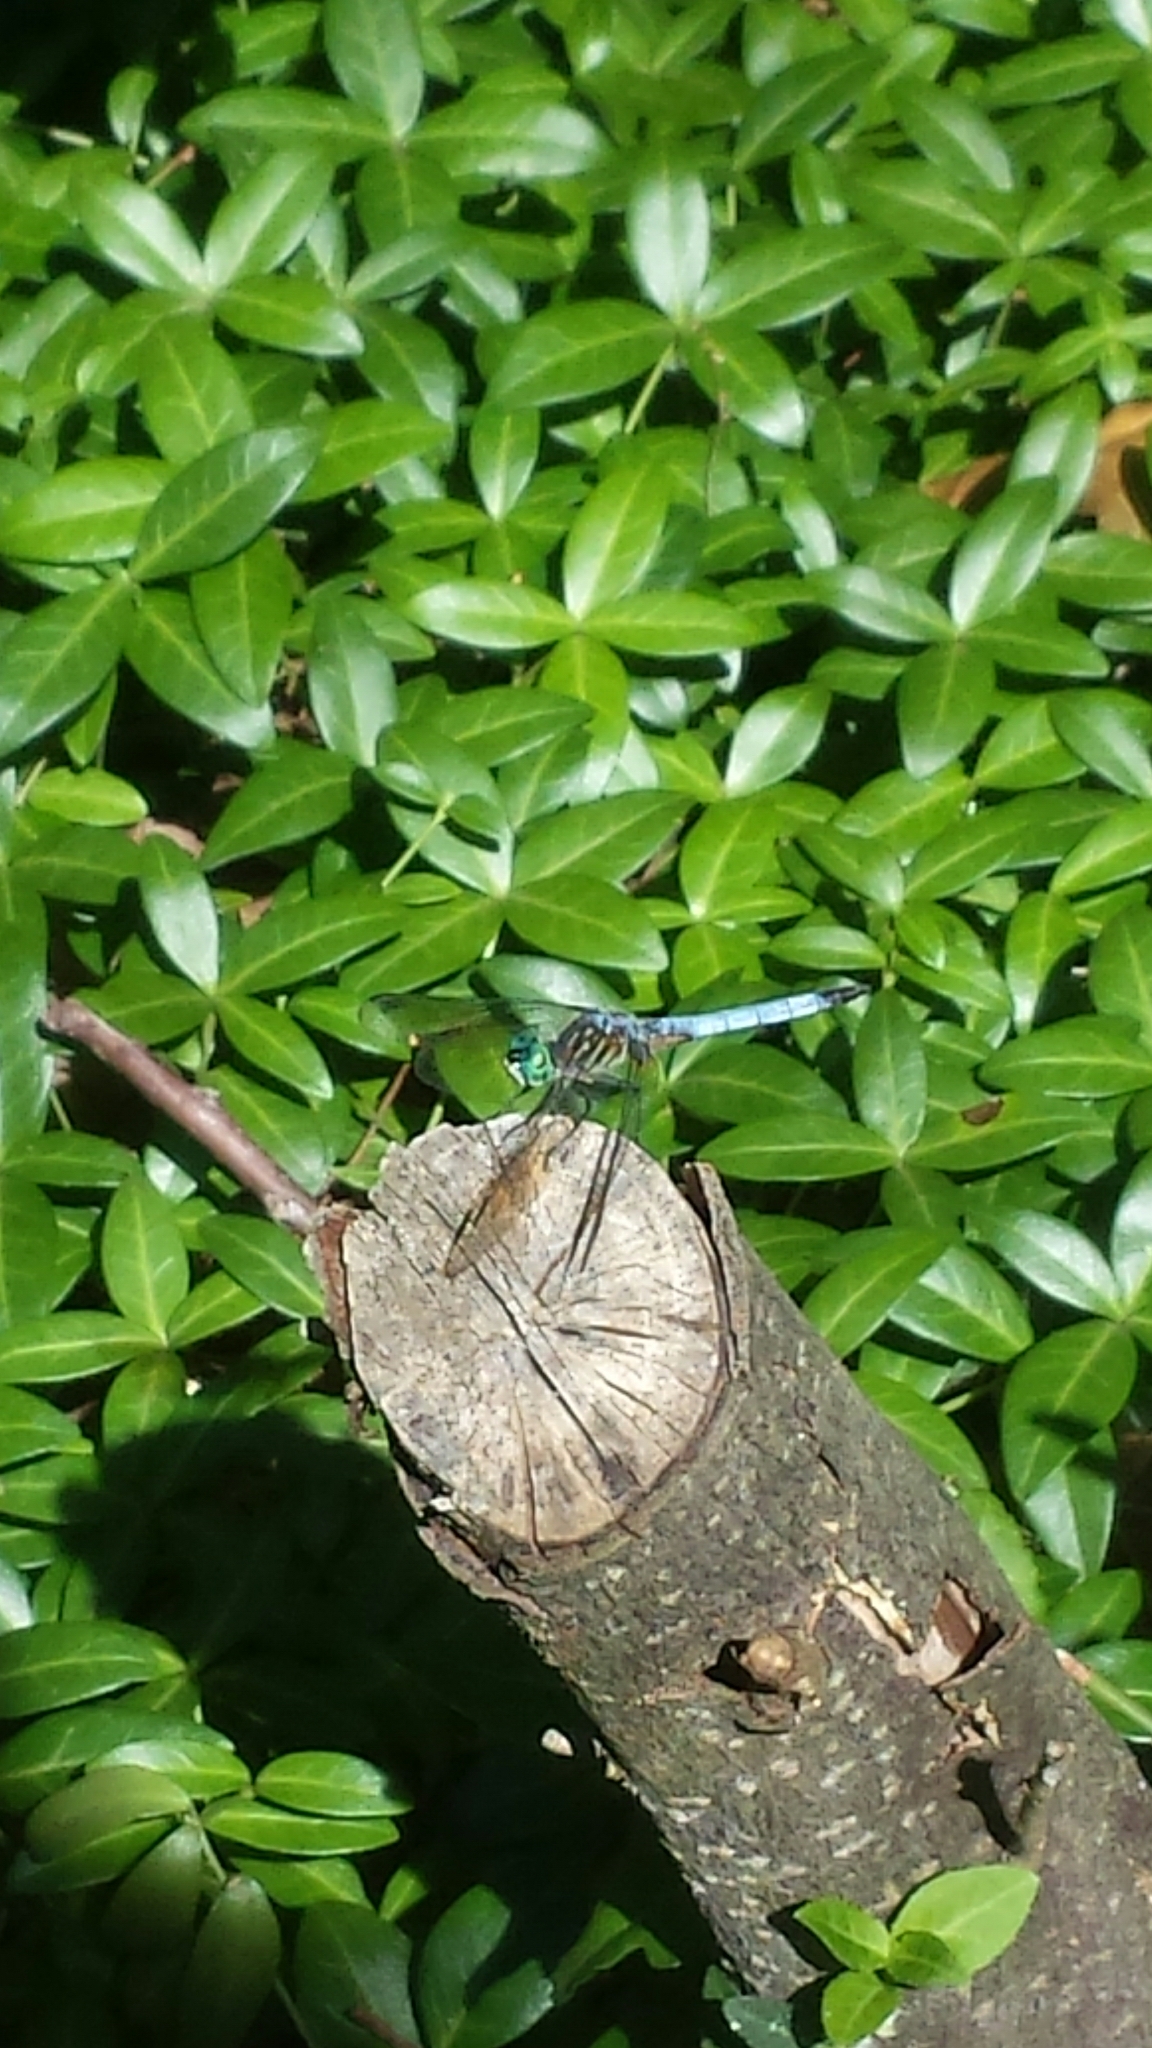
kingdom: Animalia
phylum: Arthropoda
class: Insecta
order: Odonata
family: Libellulidae
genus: Pachydiplax
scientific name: Pachydiplax longipennis
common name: Blue dasher
